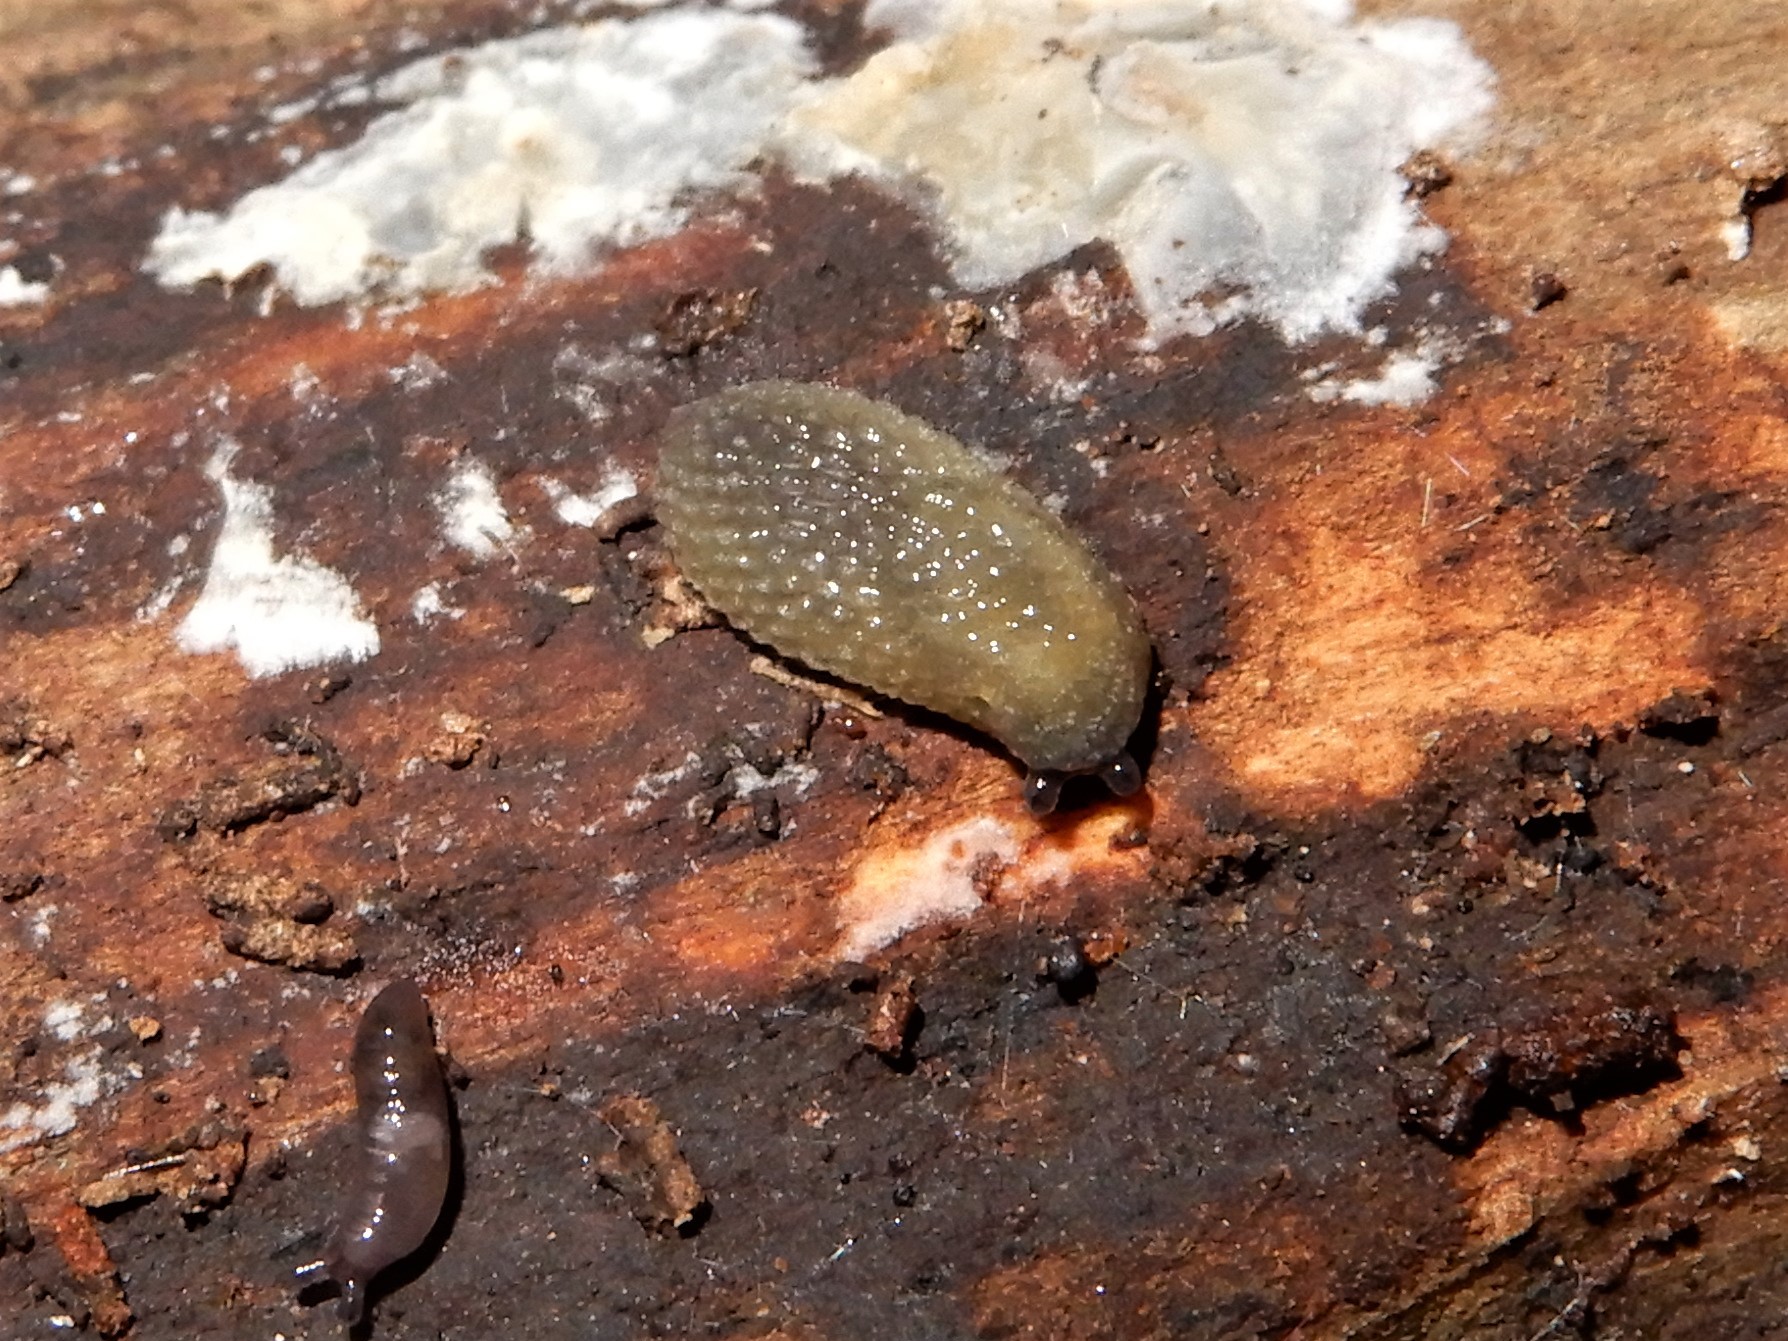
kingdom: Animalia
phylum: Mollusca
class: Gastropoda
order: Stylommatophora
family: Arionidae
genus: Arion
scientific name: Arion intermedius
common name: Hedgehog slug
